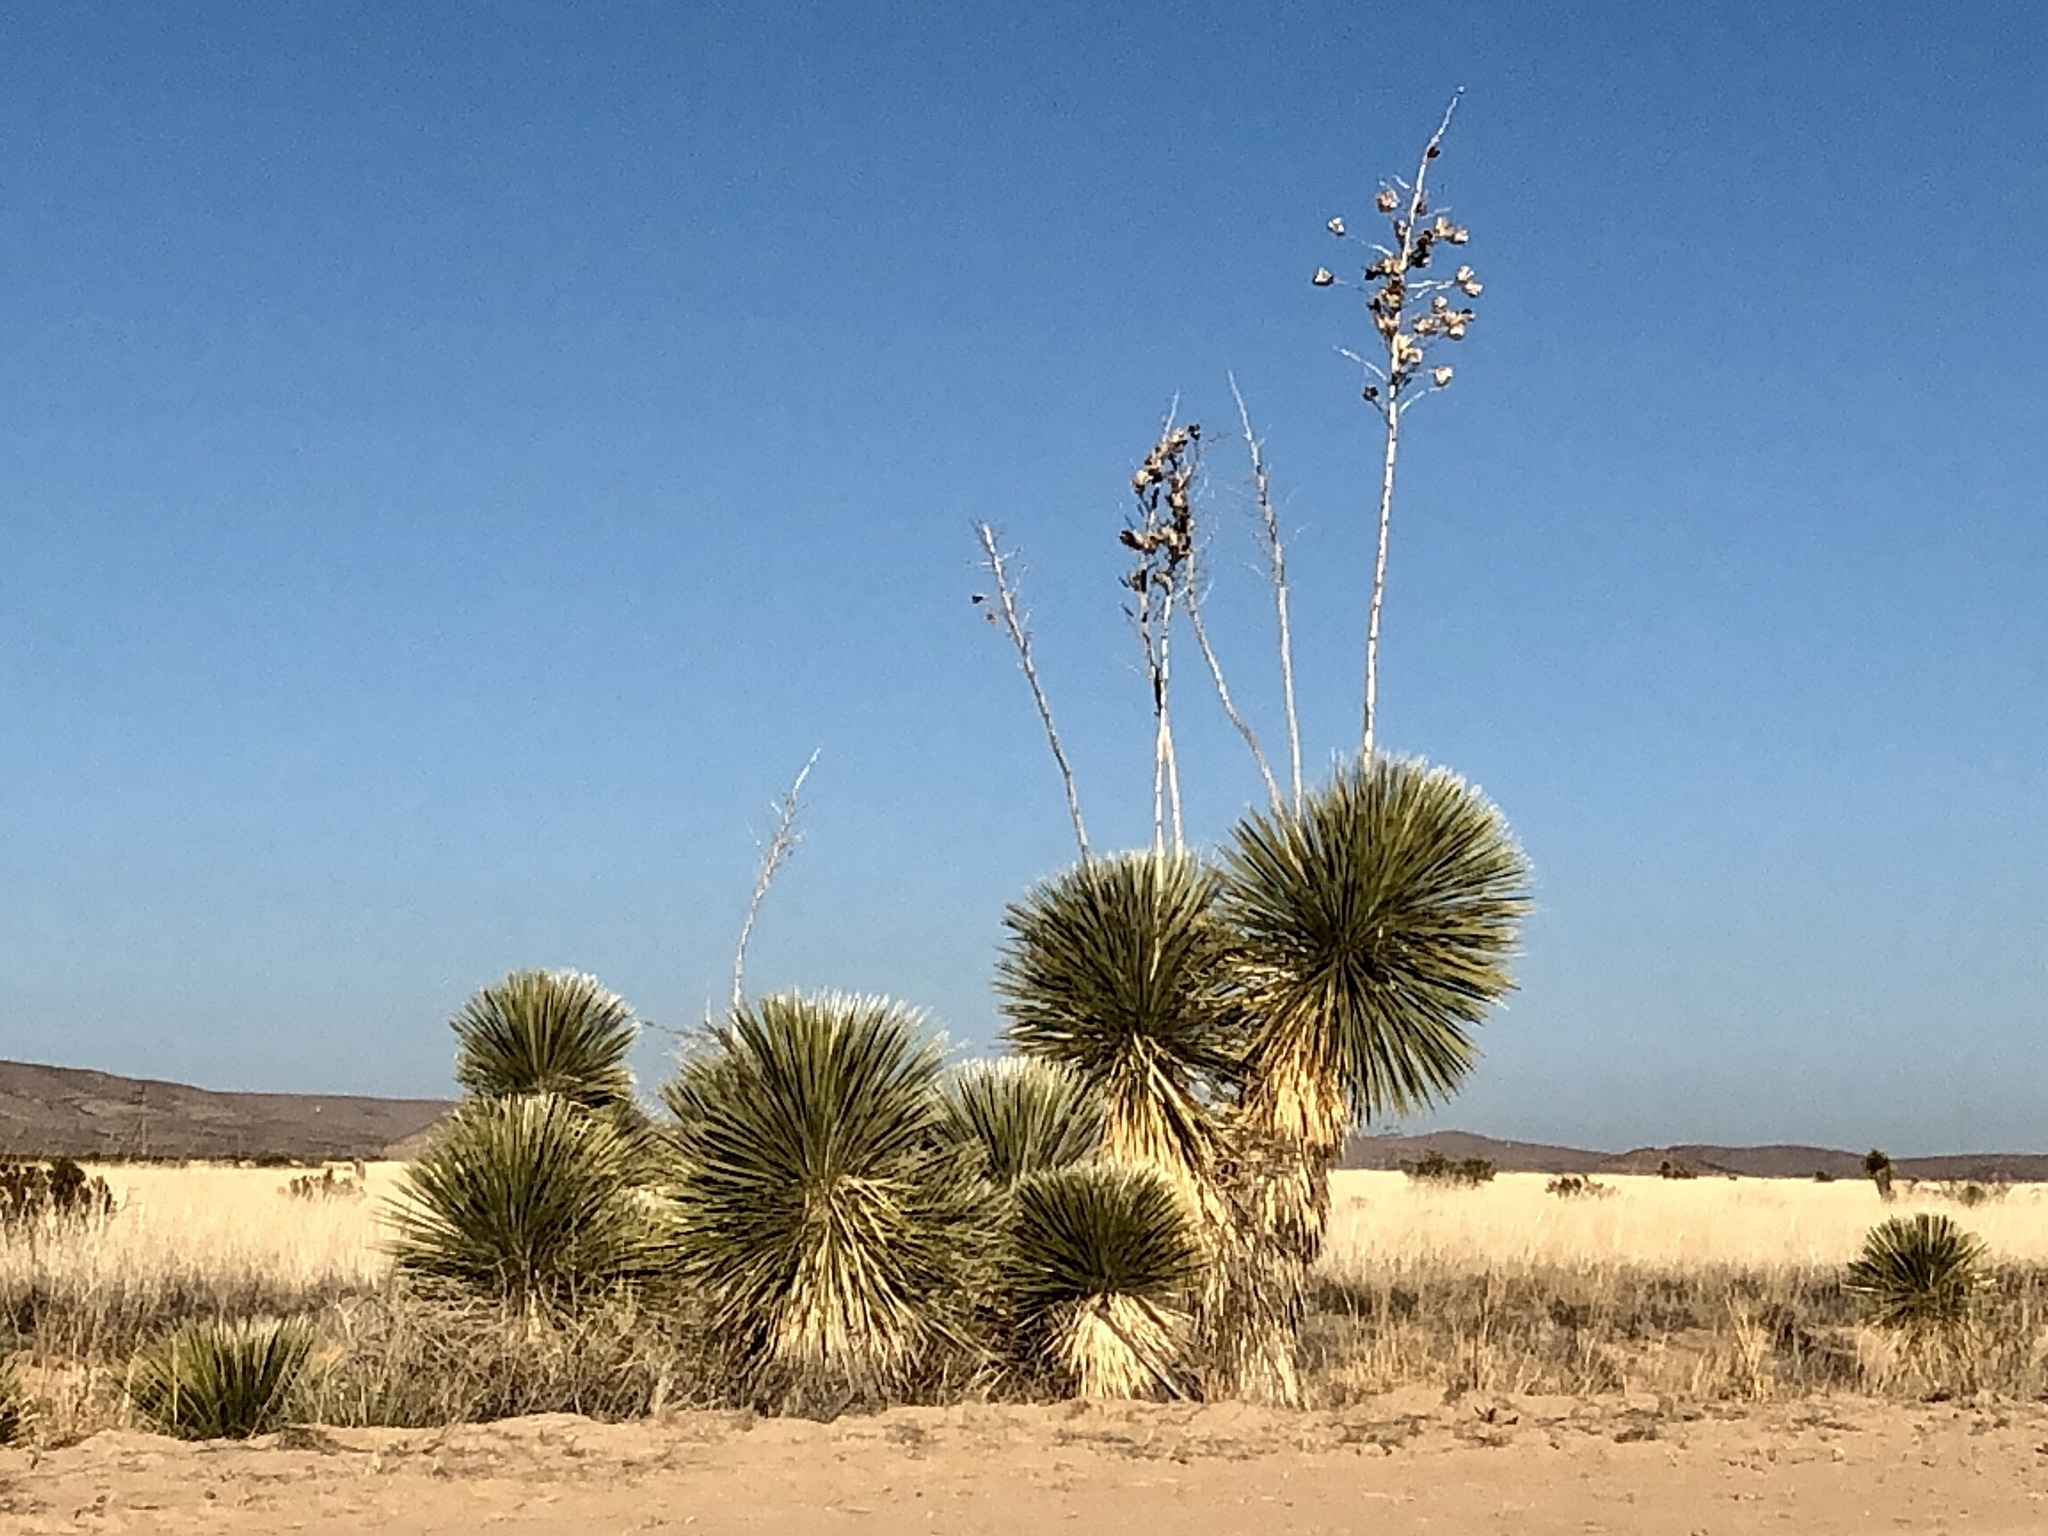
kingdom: Plantae
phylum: Tracheophyta
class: Liliopsida
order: Asparagales
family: Asparagaceae
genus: Yucca
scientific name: Yucca elata
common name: Palmella
